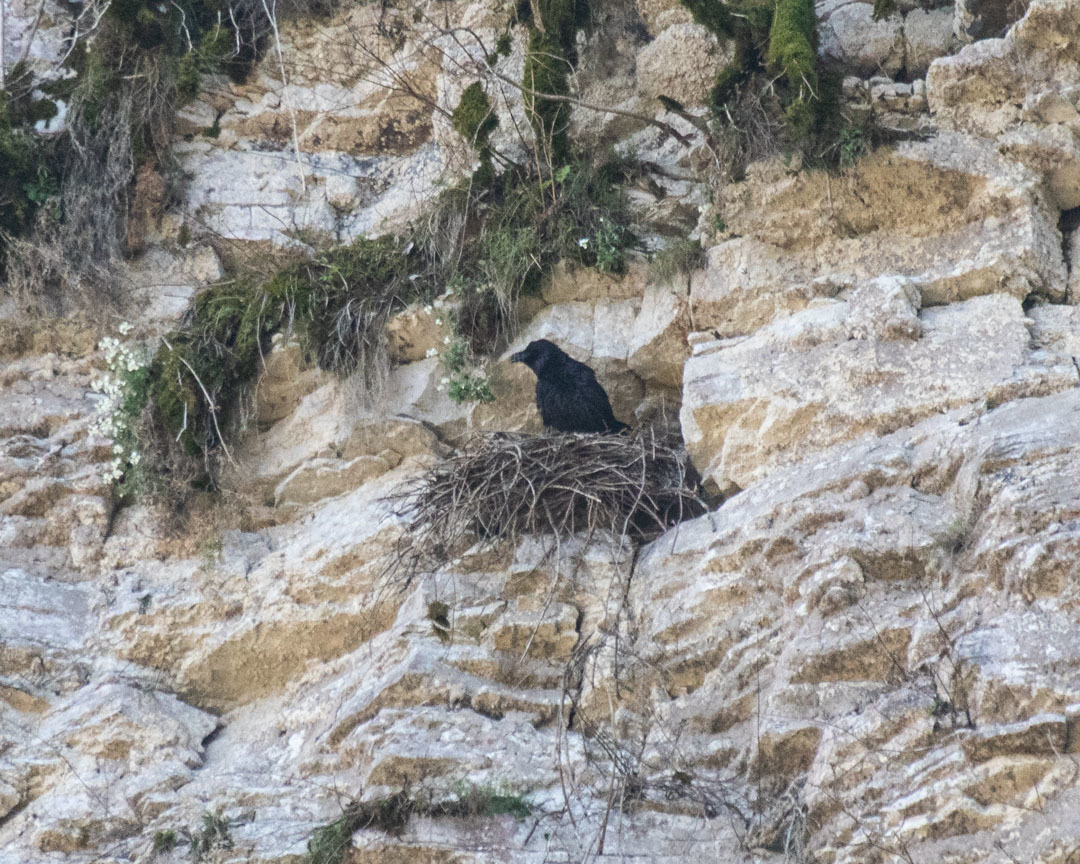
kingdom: Animalia
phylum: Chordata
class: Aves
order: Passeriformes
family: Corvidae
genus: Corvus
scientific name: Corvus corax
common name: Common raven
